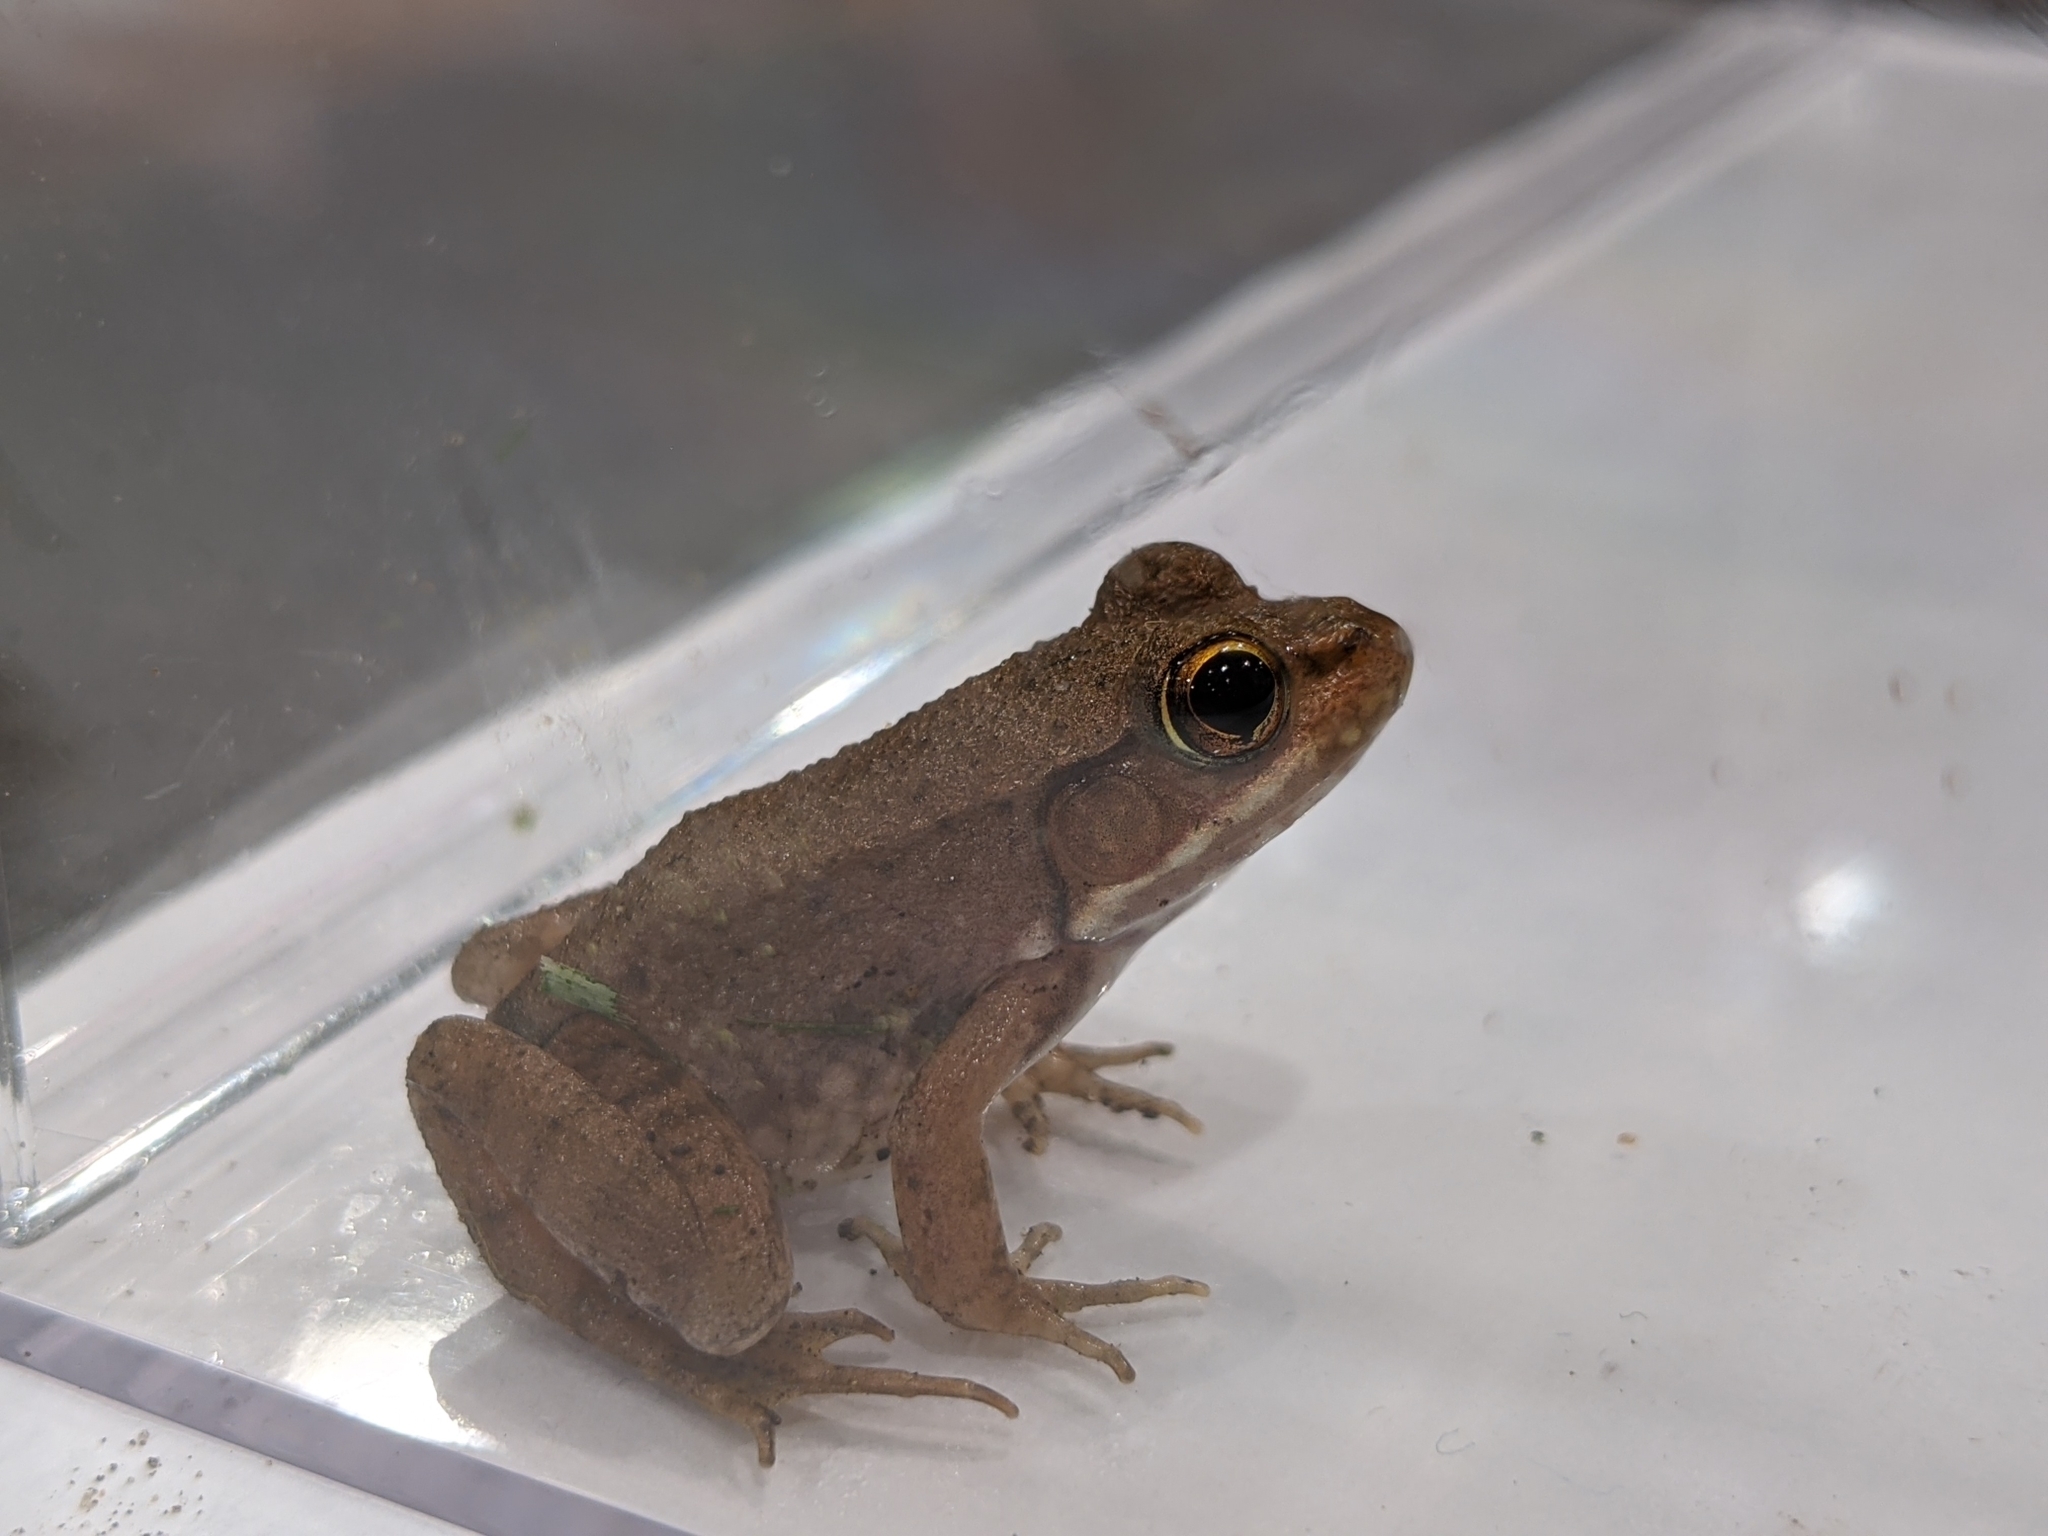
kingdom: Animalia
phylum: Chordata
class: Amphibia
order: Anura
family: Ranidae
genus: Lithobates
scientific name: Lithobates clamitans
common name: Green frog
